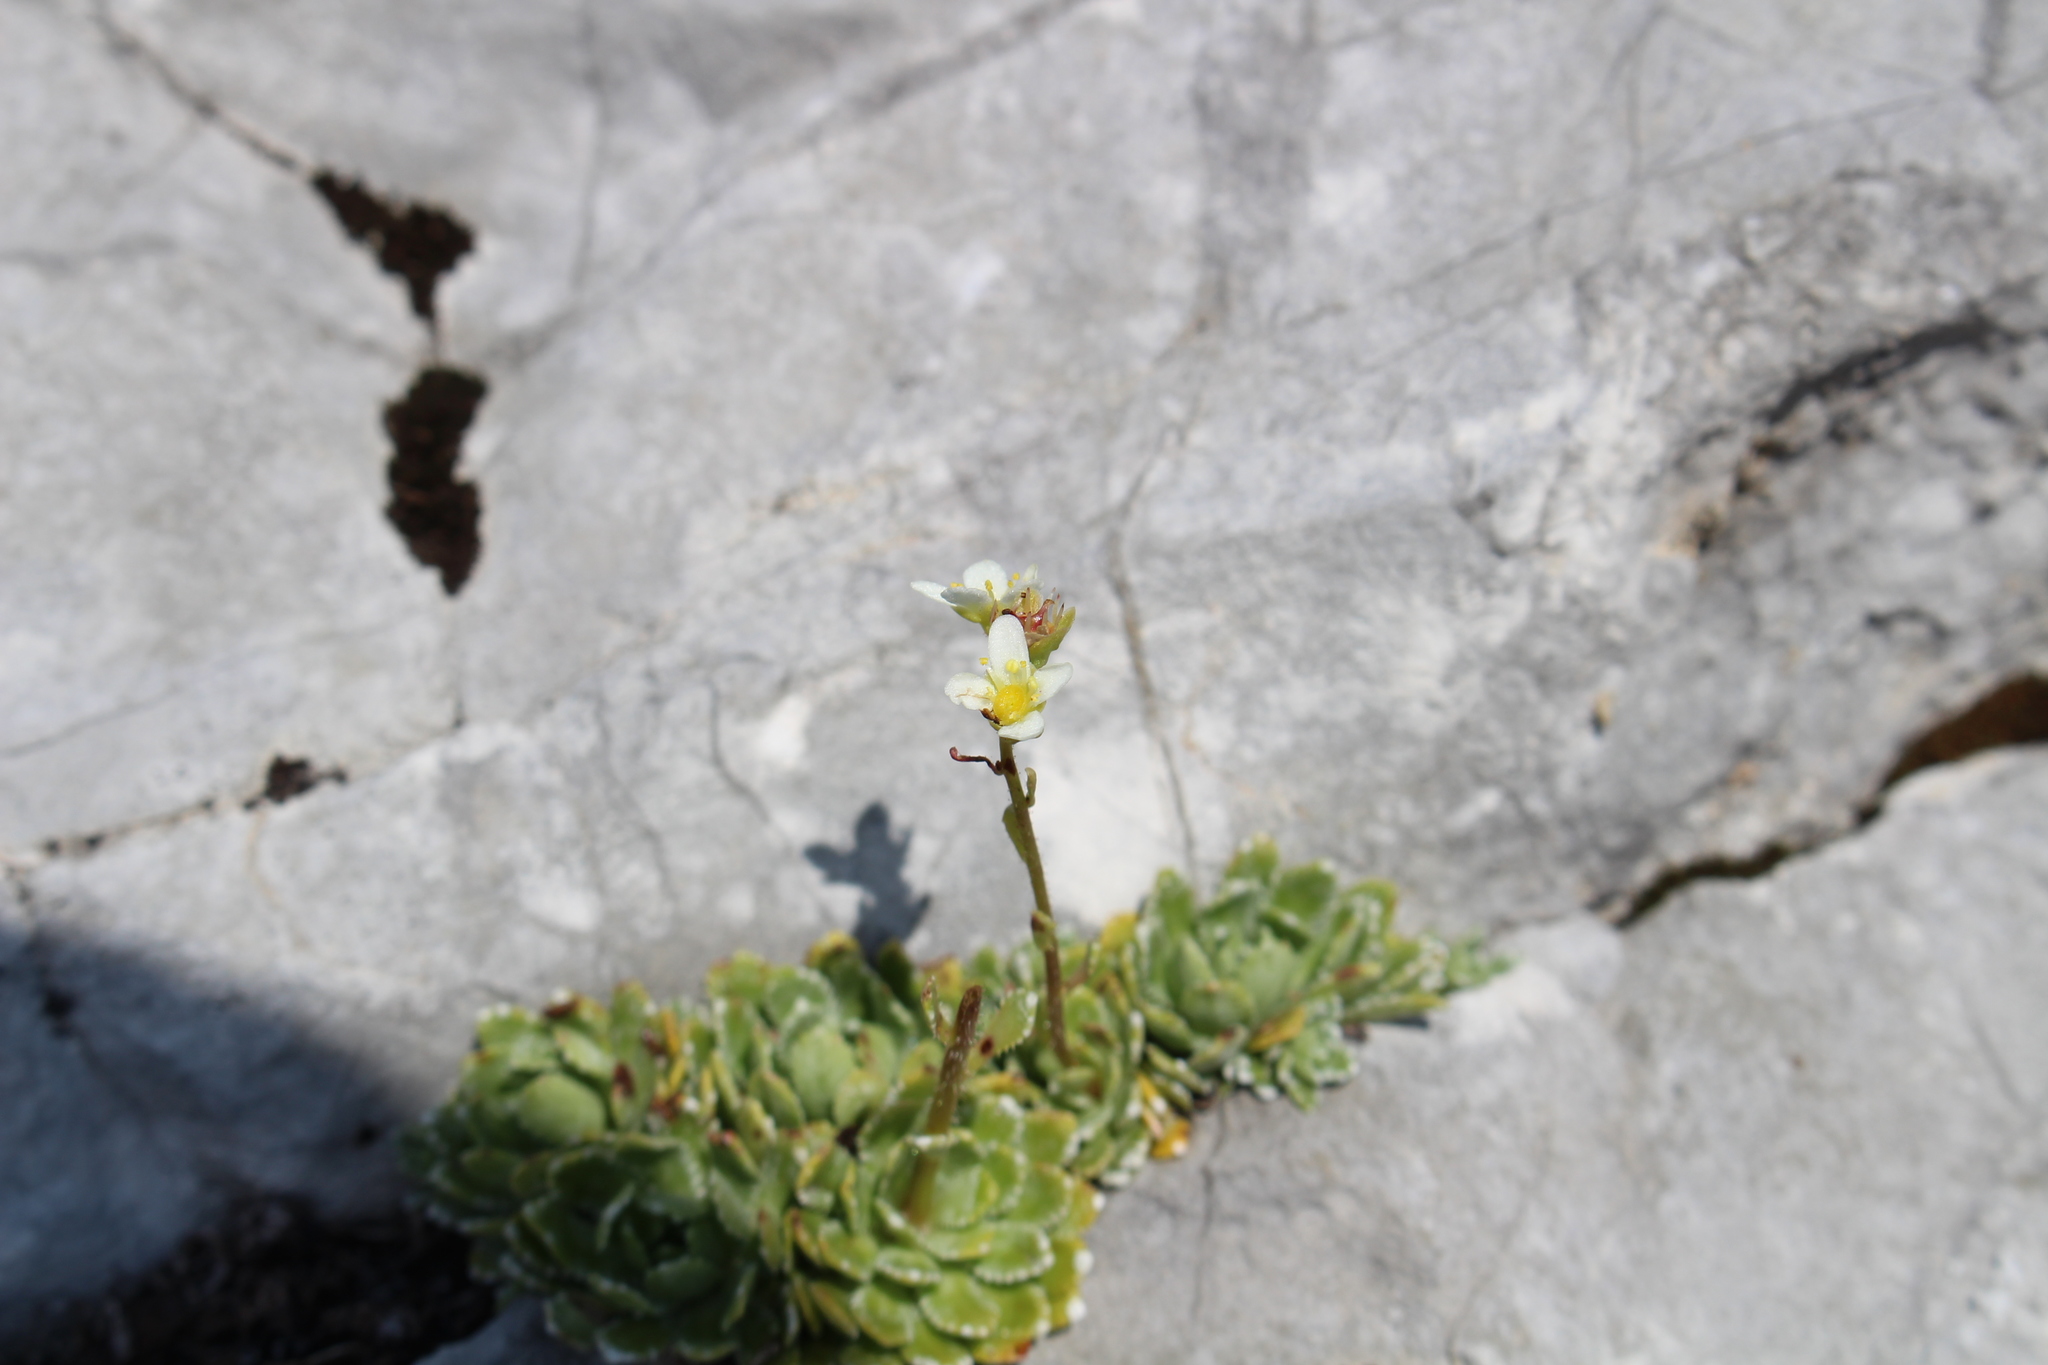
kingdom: Plantae
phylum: Tracheophyta
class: Magnoliopsida
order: Saxifragales
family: Saxifragaceae
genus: Saxifraga
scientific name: Saxifraga paniculata
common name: Livelong saxifrage
